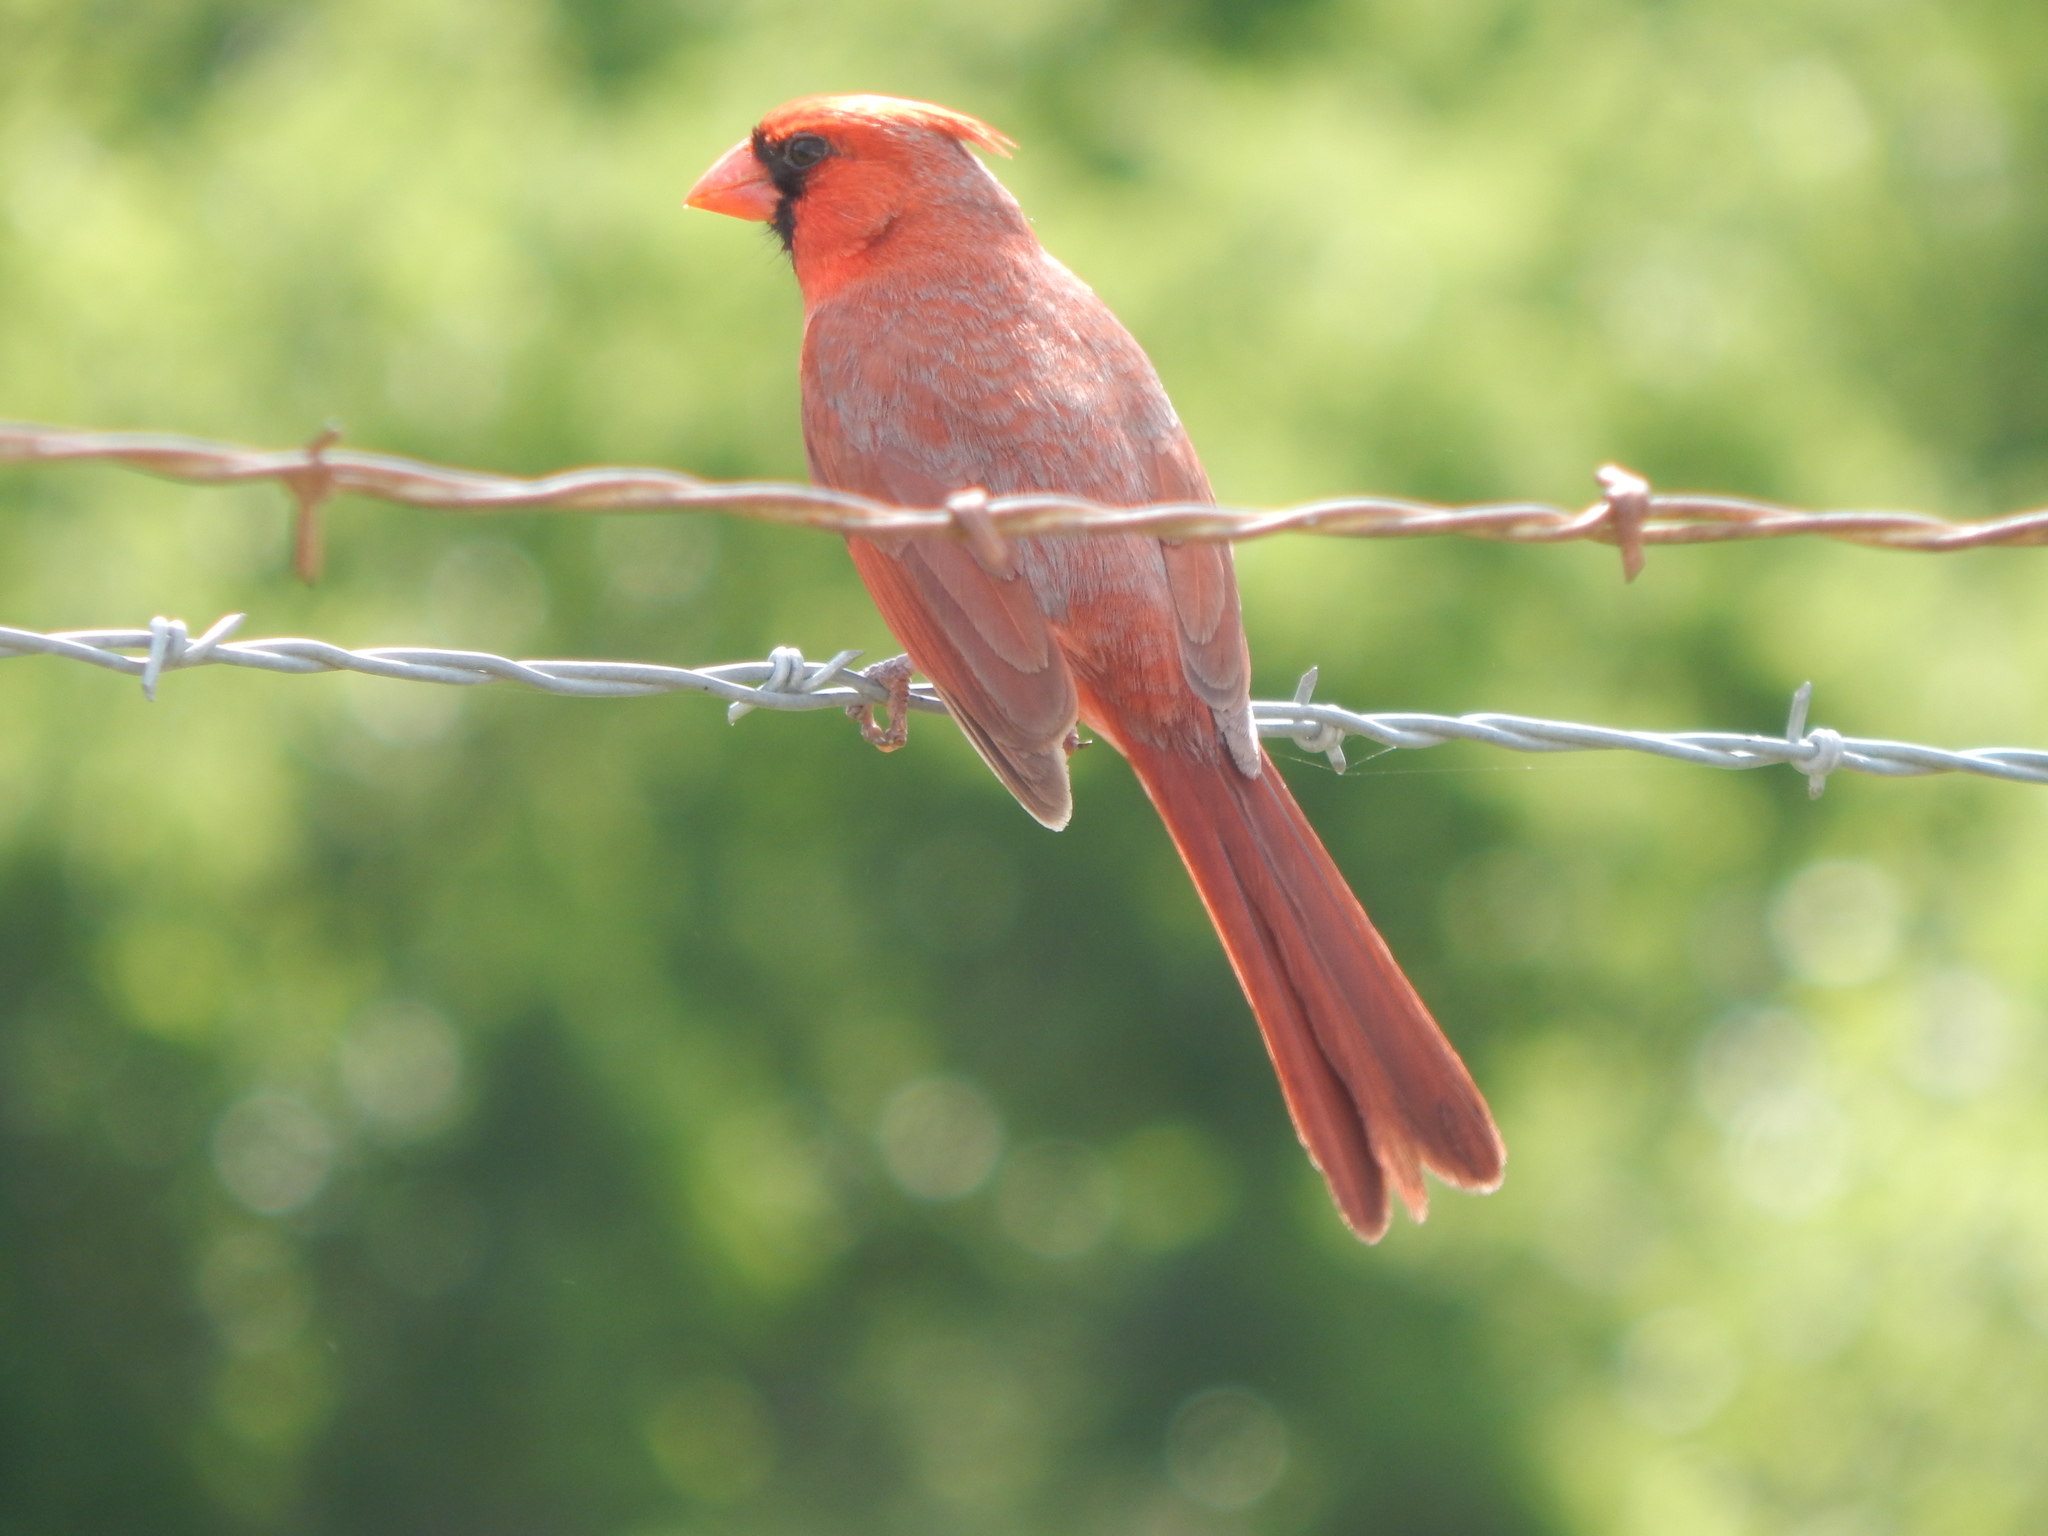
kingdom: Animalia
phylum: Chordata
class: Aves
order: Passeriformes
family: Cardinalidae
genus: Cardinalis
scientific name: Cardinalis cardinalis
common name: Northern cardinal
